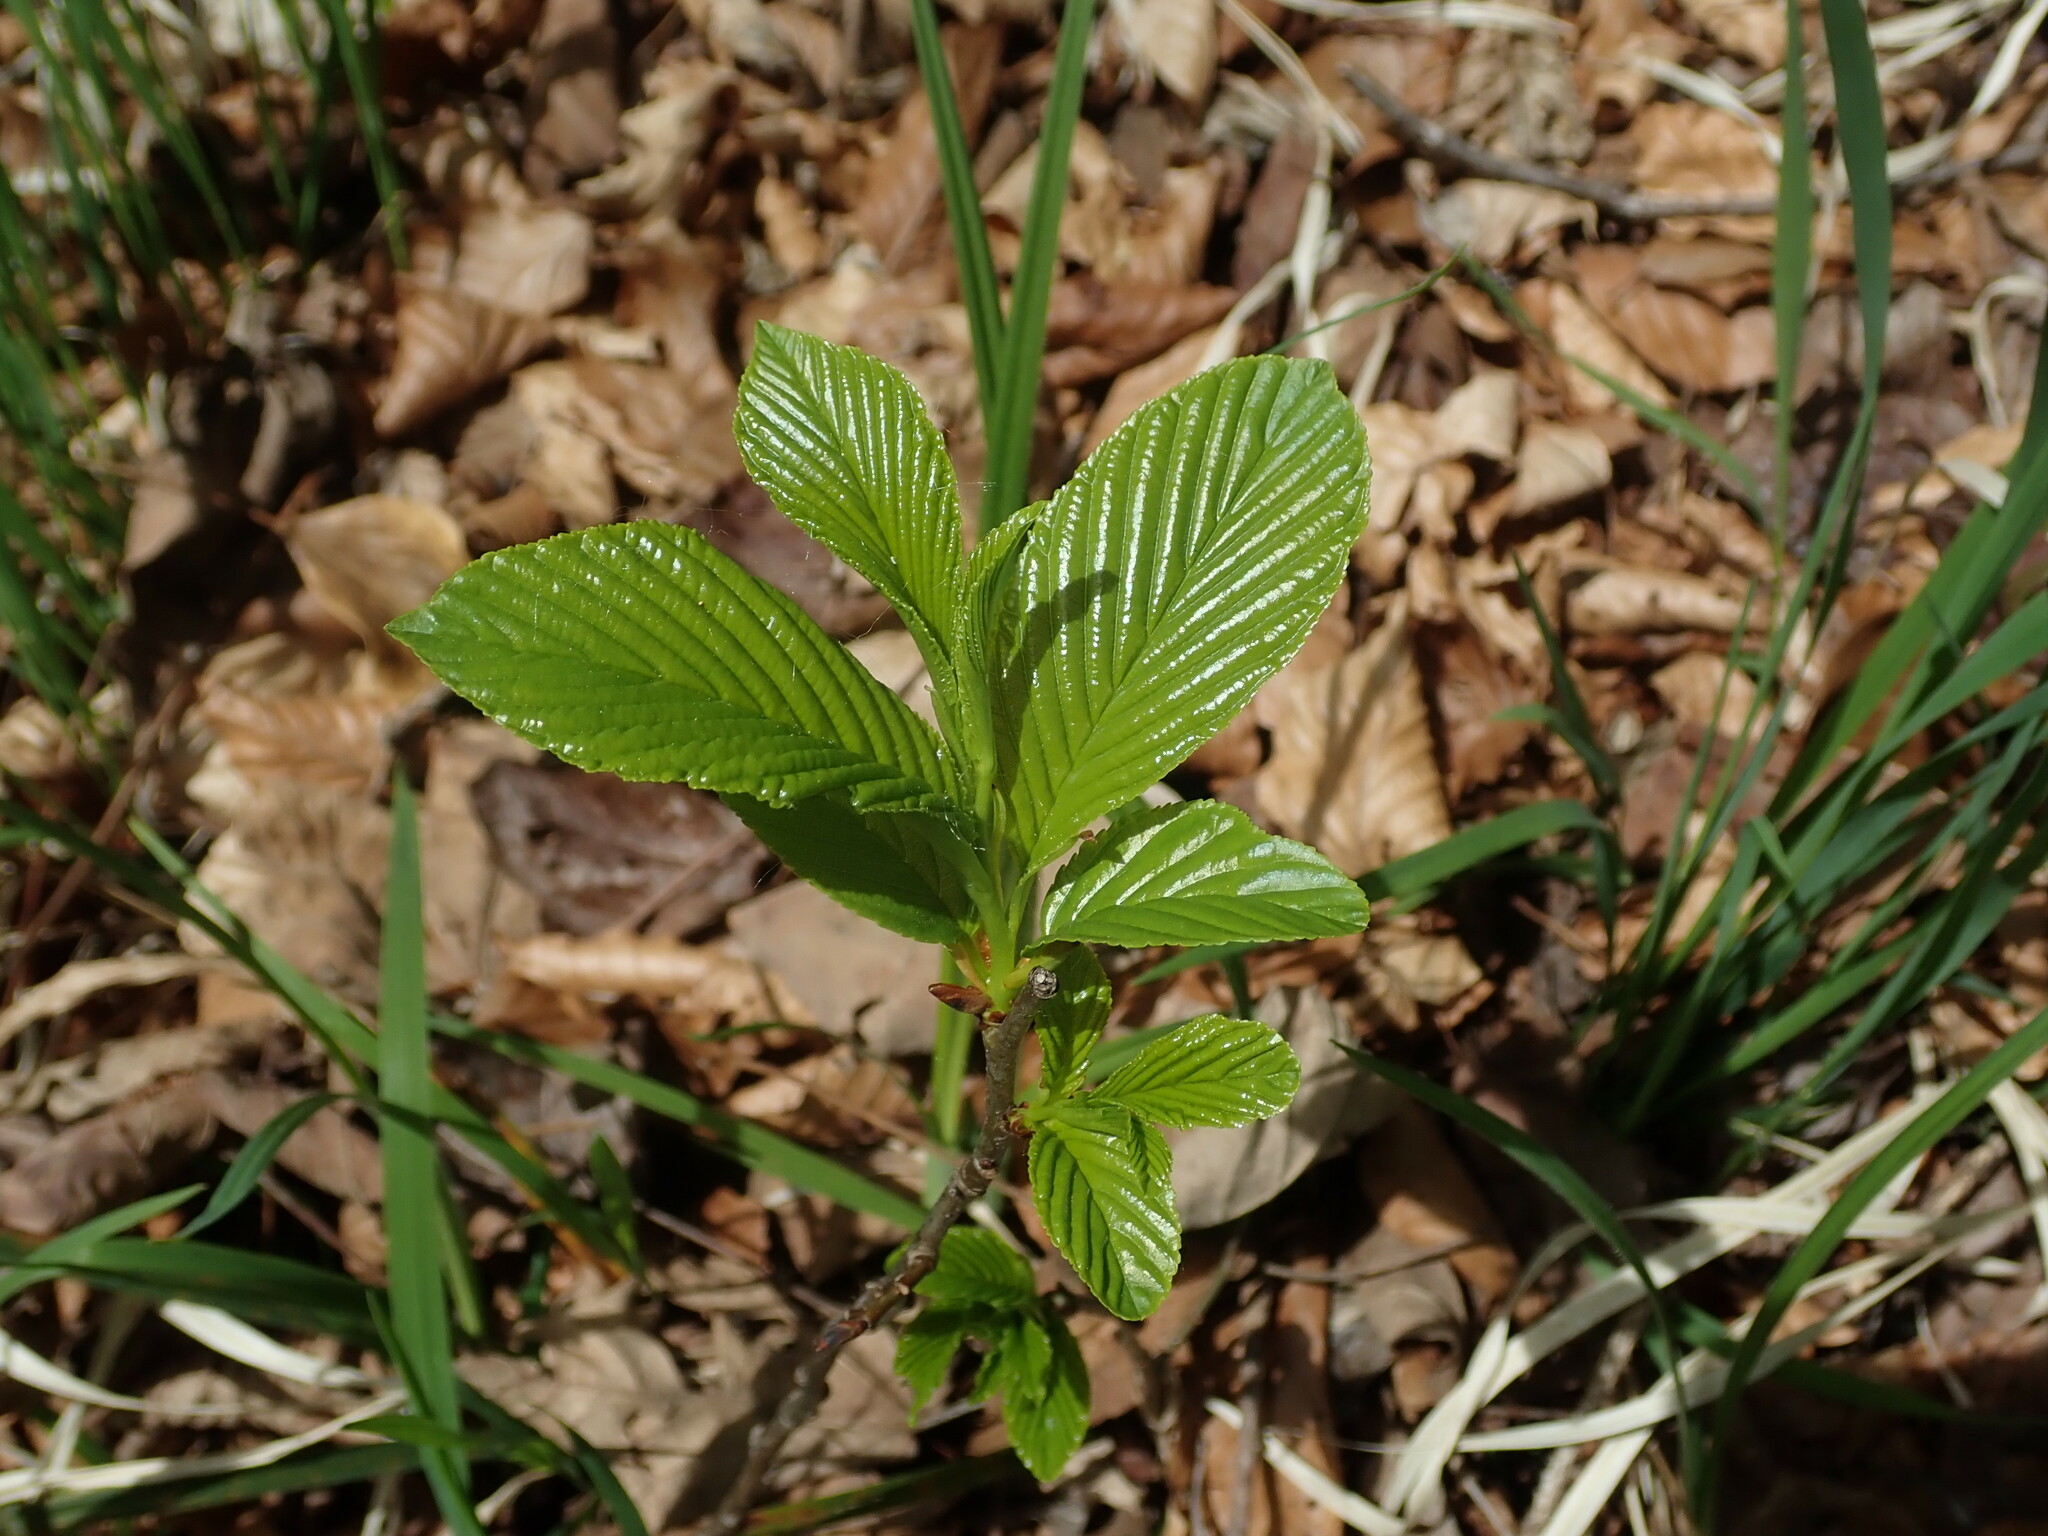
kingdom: Plantae
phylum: Tracheophyta
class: Magnoliopsida
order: Rosales
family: Rhamnaceae
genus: Atadinus
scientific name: Atadinus fallax
